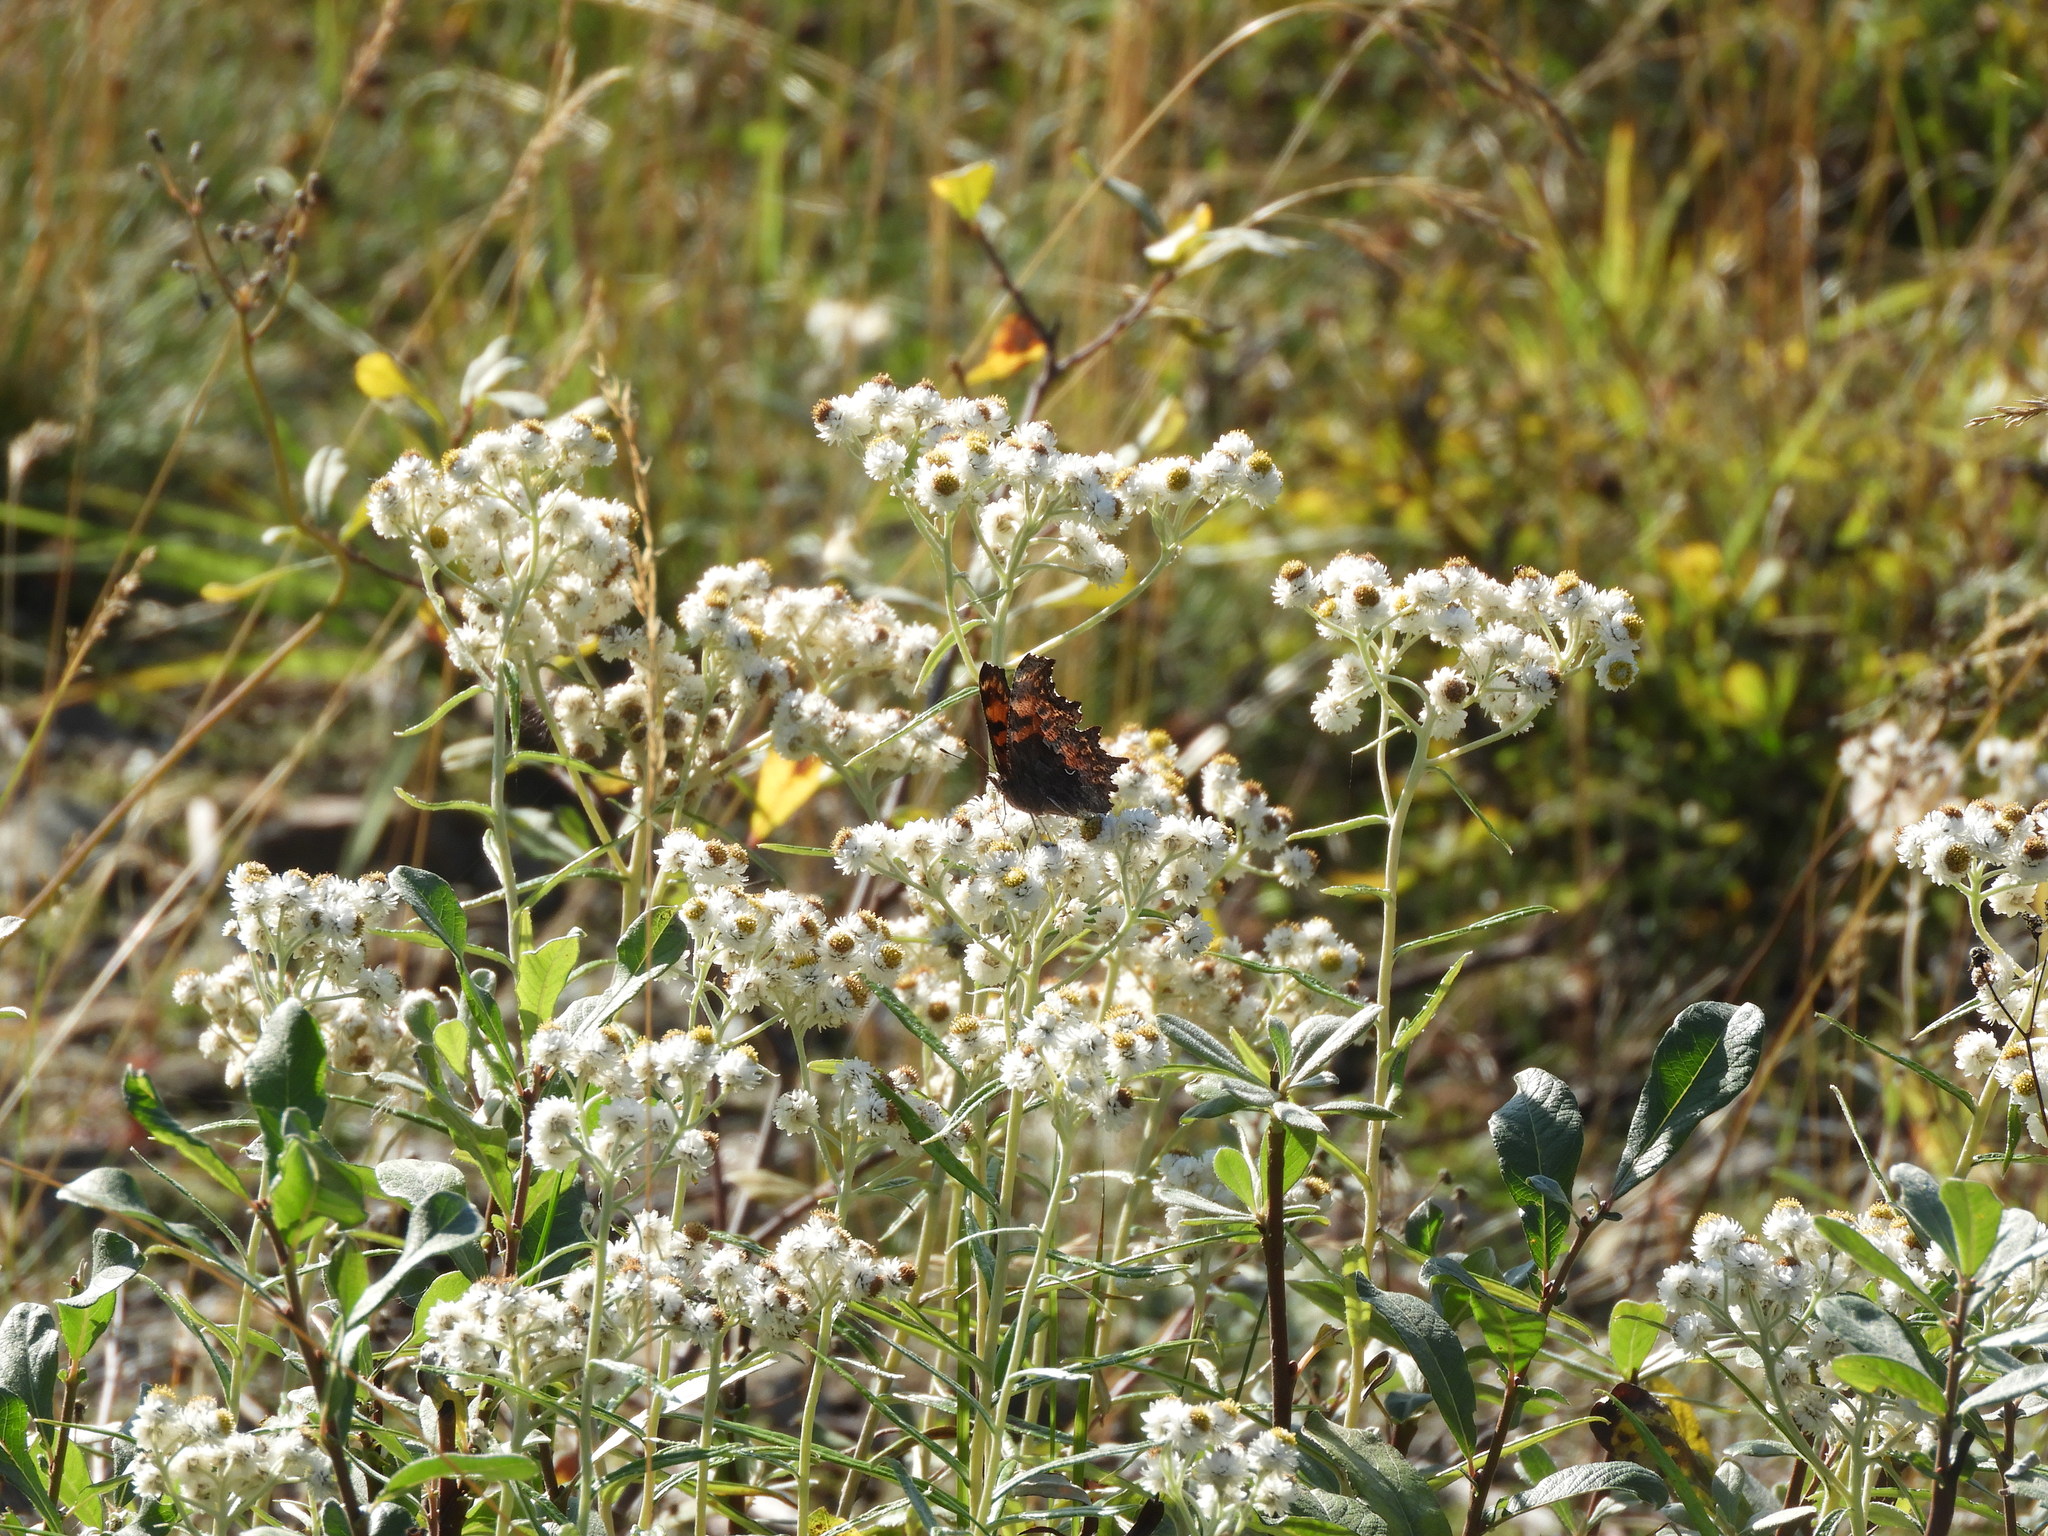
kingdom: Animalia
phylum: Arthropoda
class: Insecta
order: Lepidoptera
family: Nymphalidae
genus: Polygonia
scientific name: Polygonia gracilis
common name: Hoary comma
